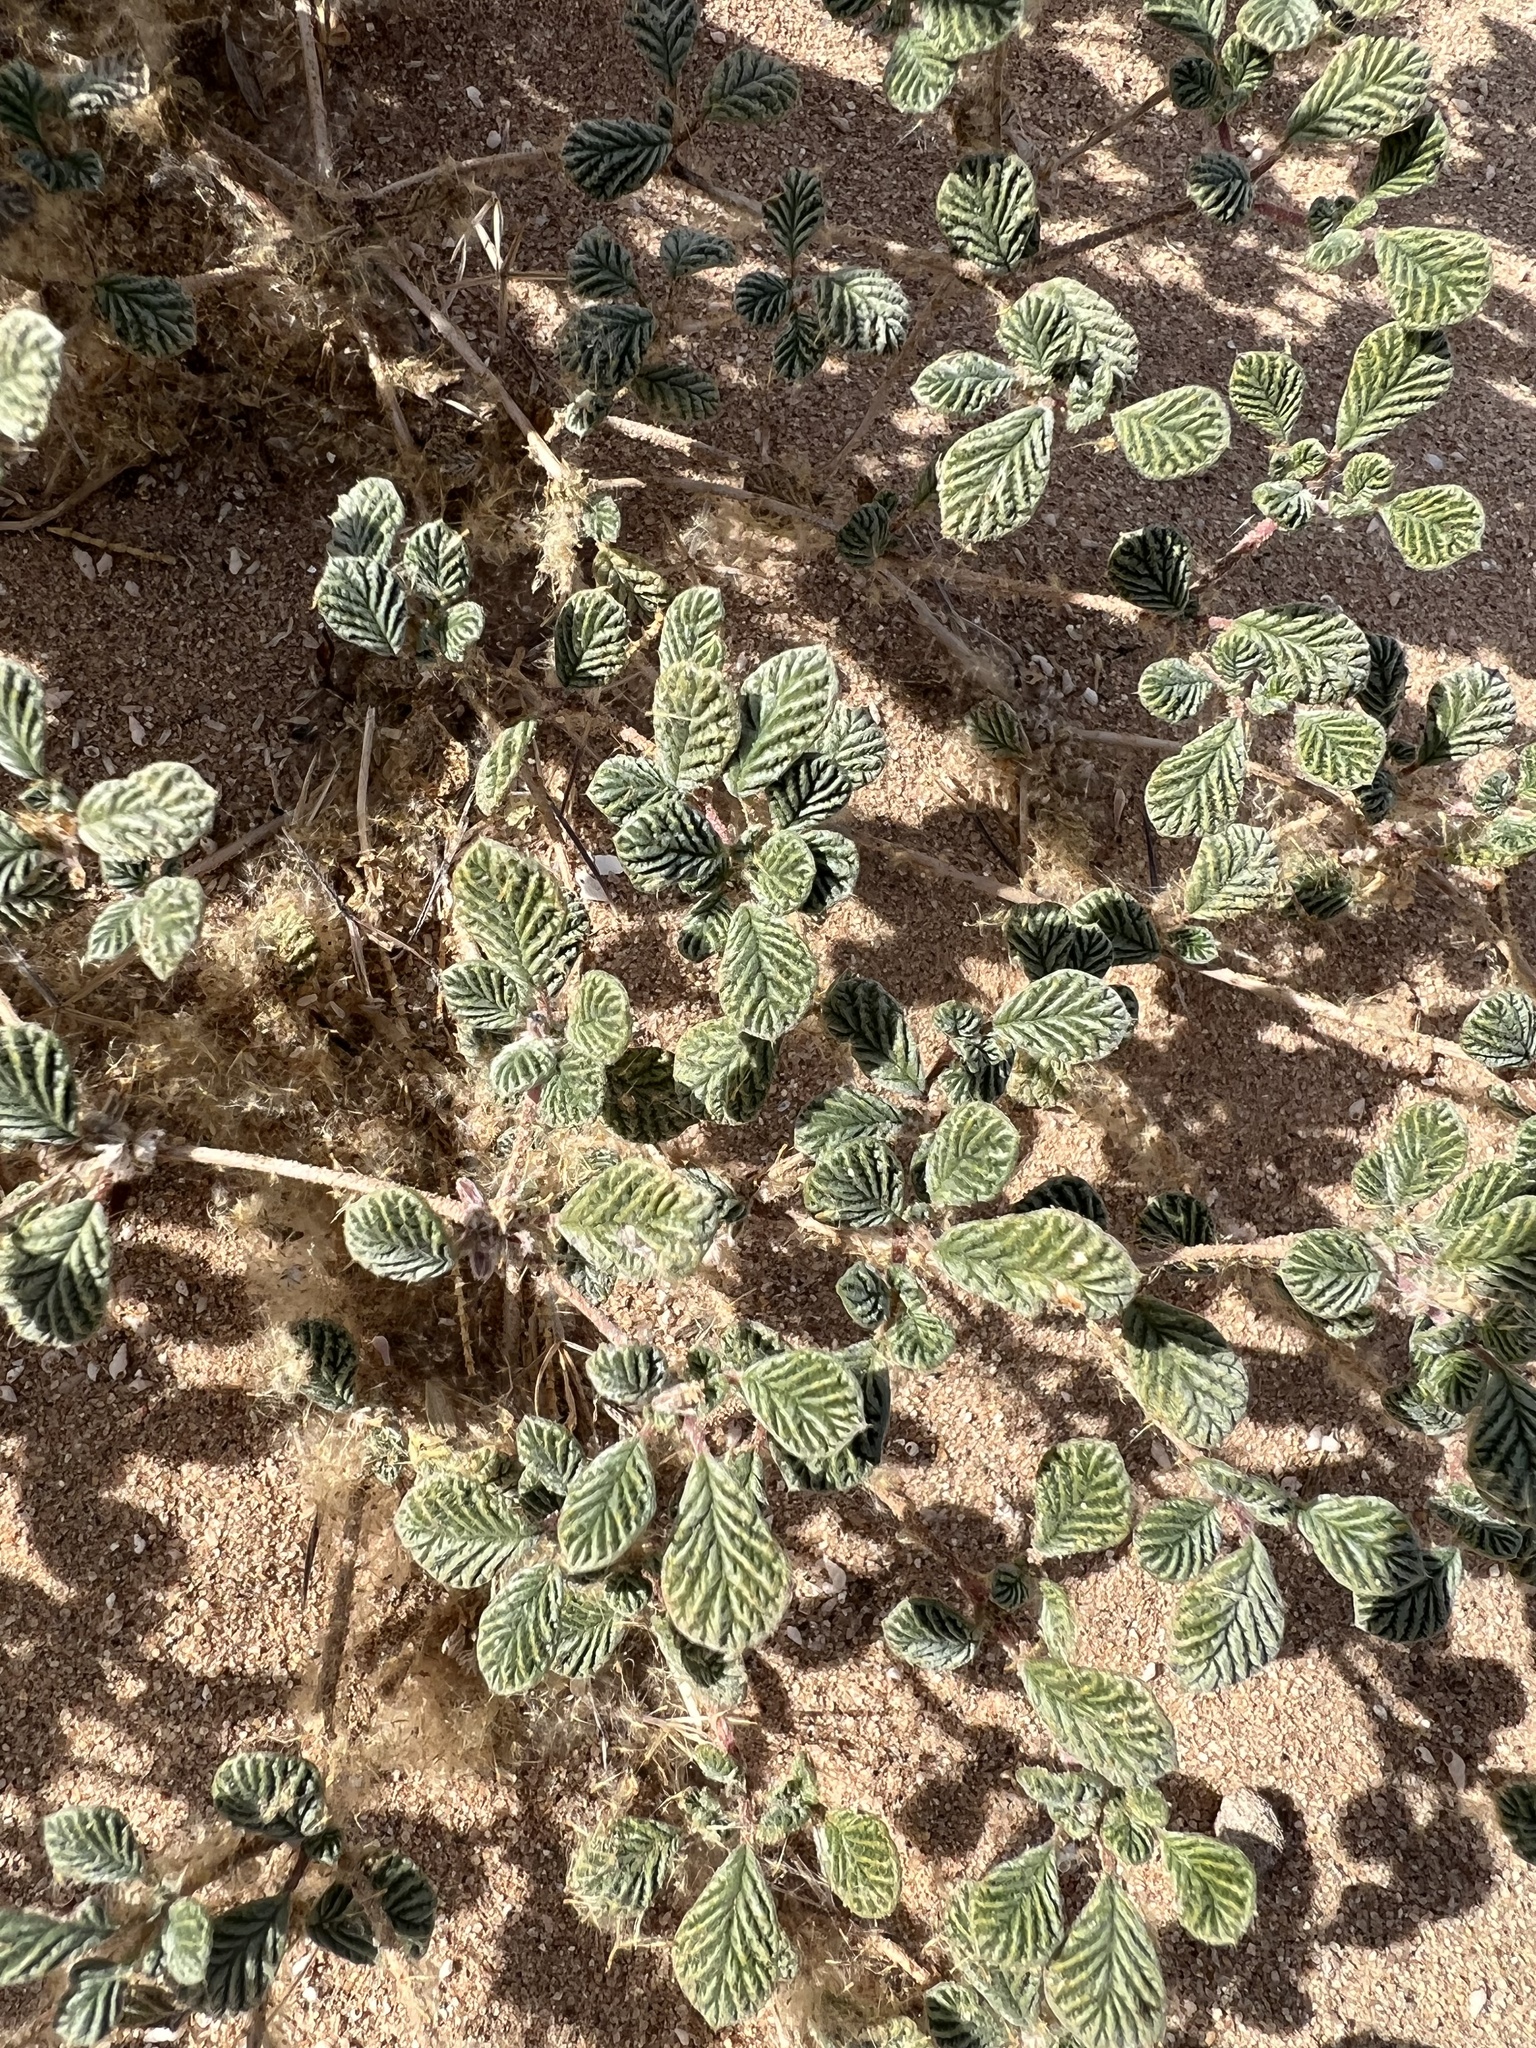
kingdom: Plantae
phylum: Tracheophyta
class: Magnoliopsida
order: Boraginales
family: Ehretiaceae
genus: Tiquilia
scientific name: Tiquilia plicata
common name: Fan-leaf tiquilia
